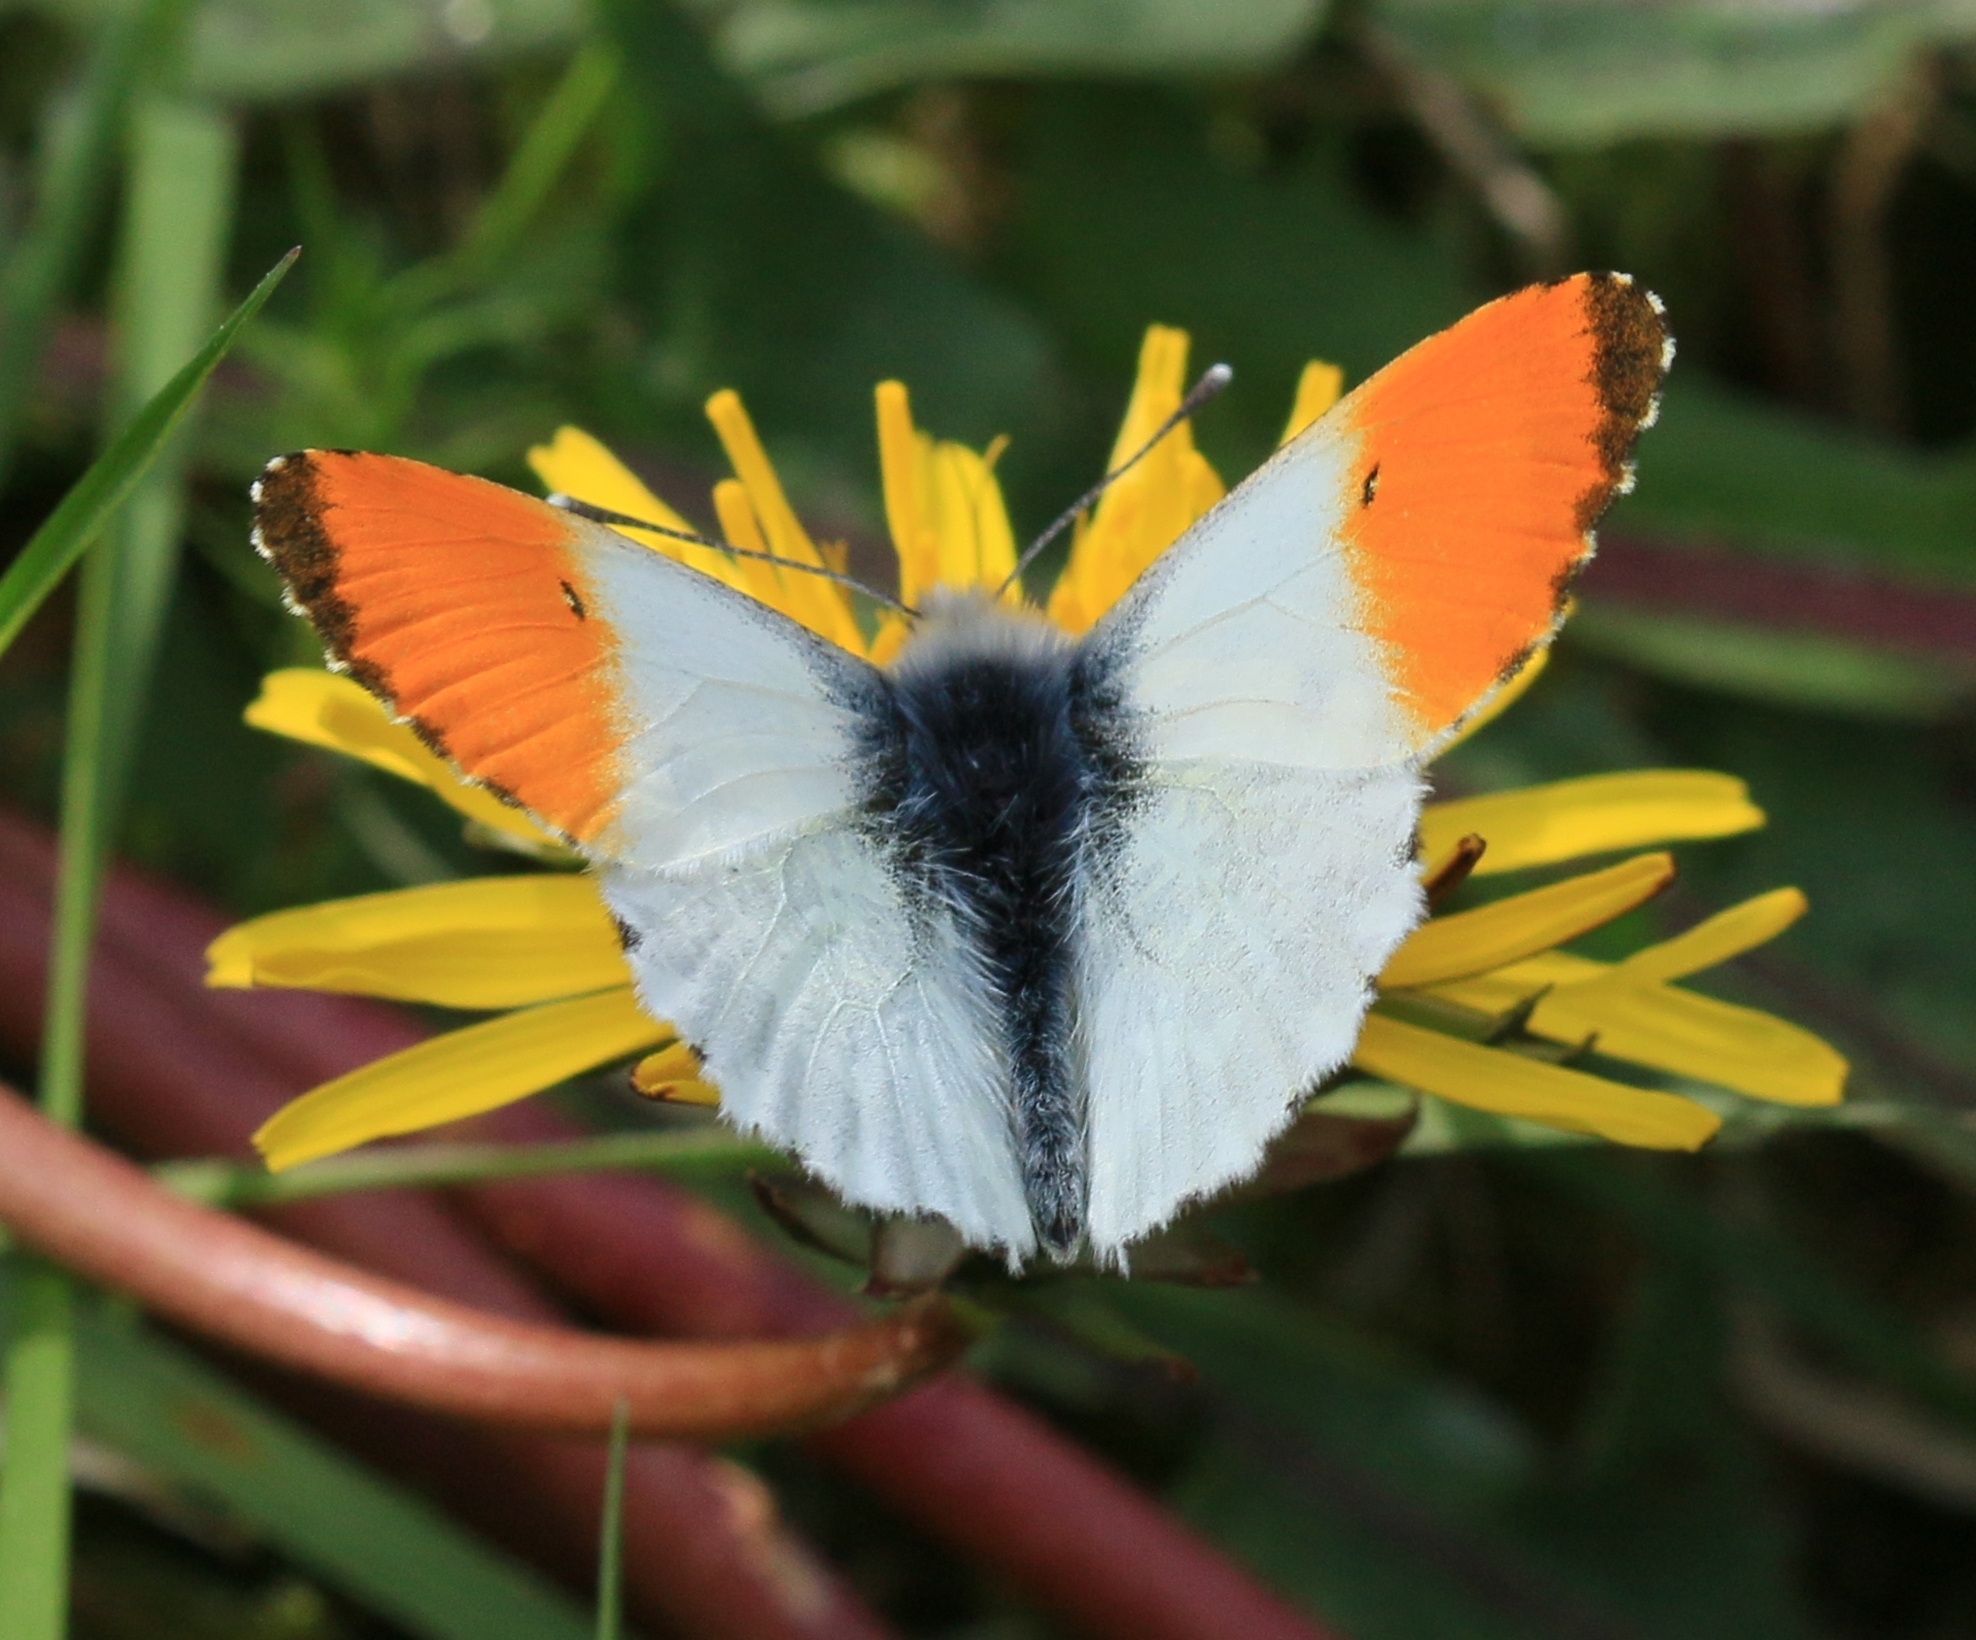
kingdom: Animalia
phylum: Arthropoda
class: Insecta
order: Lepidoptera
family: Pieridae
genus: Anthocharis
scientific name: Anthocharis cardamines
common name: Orange-tip
